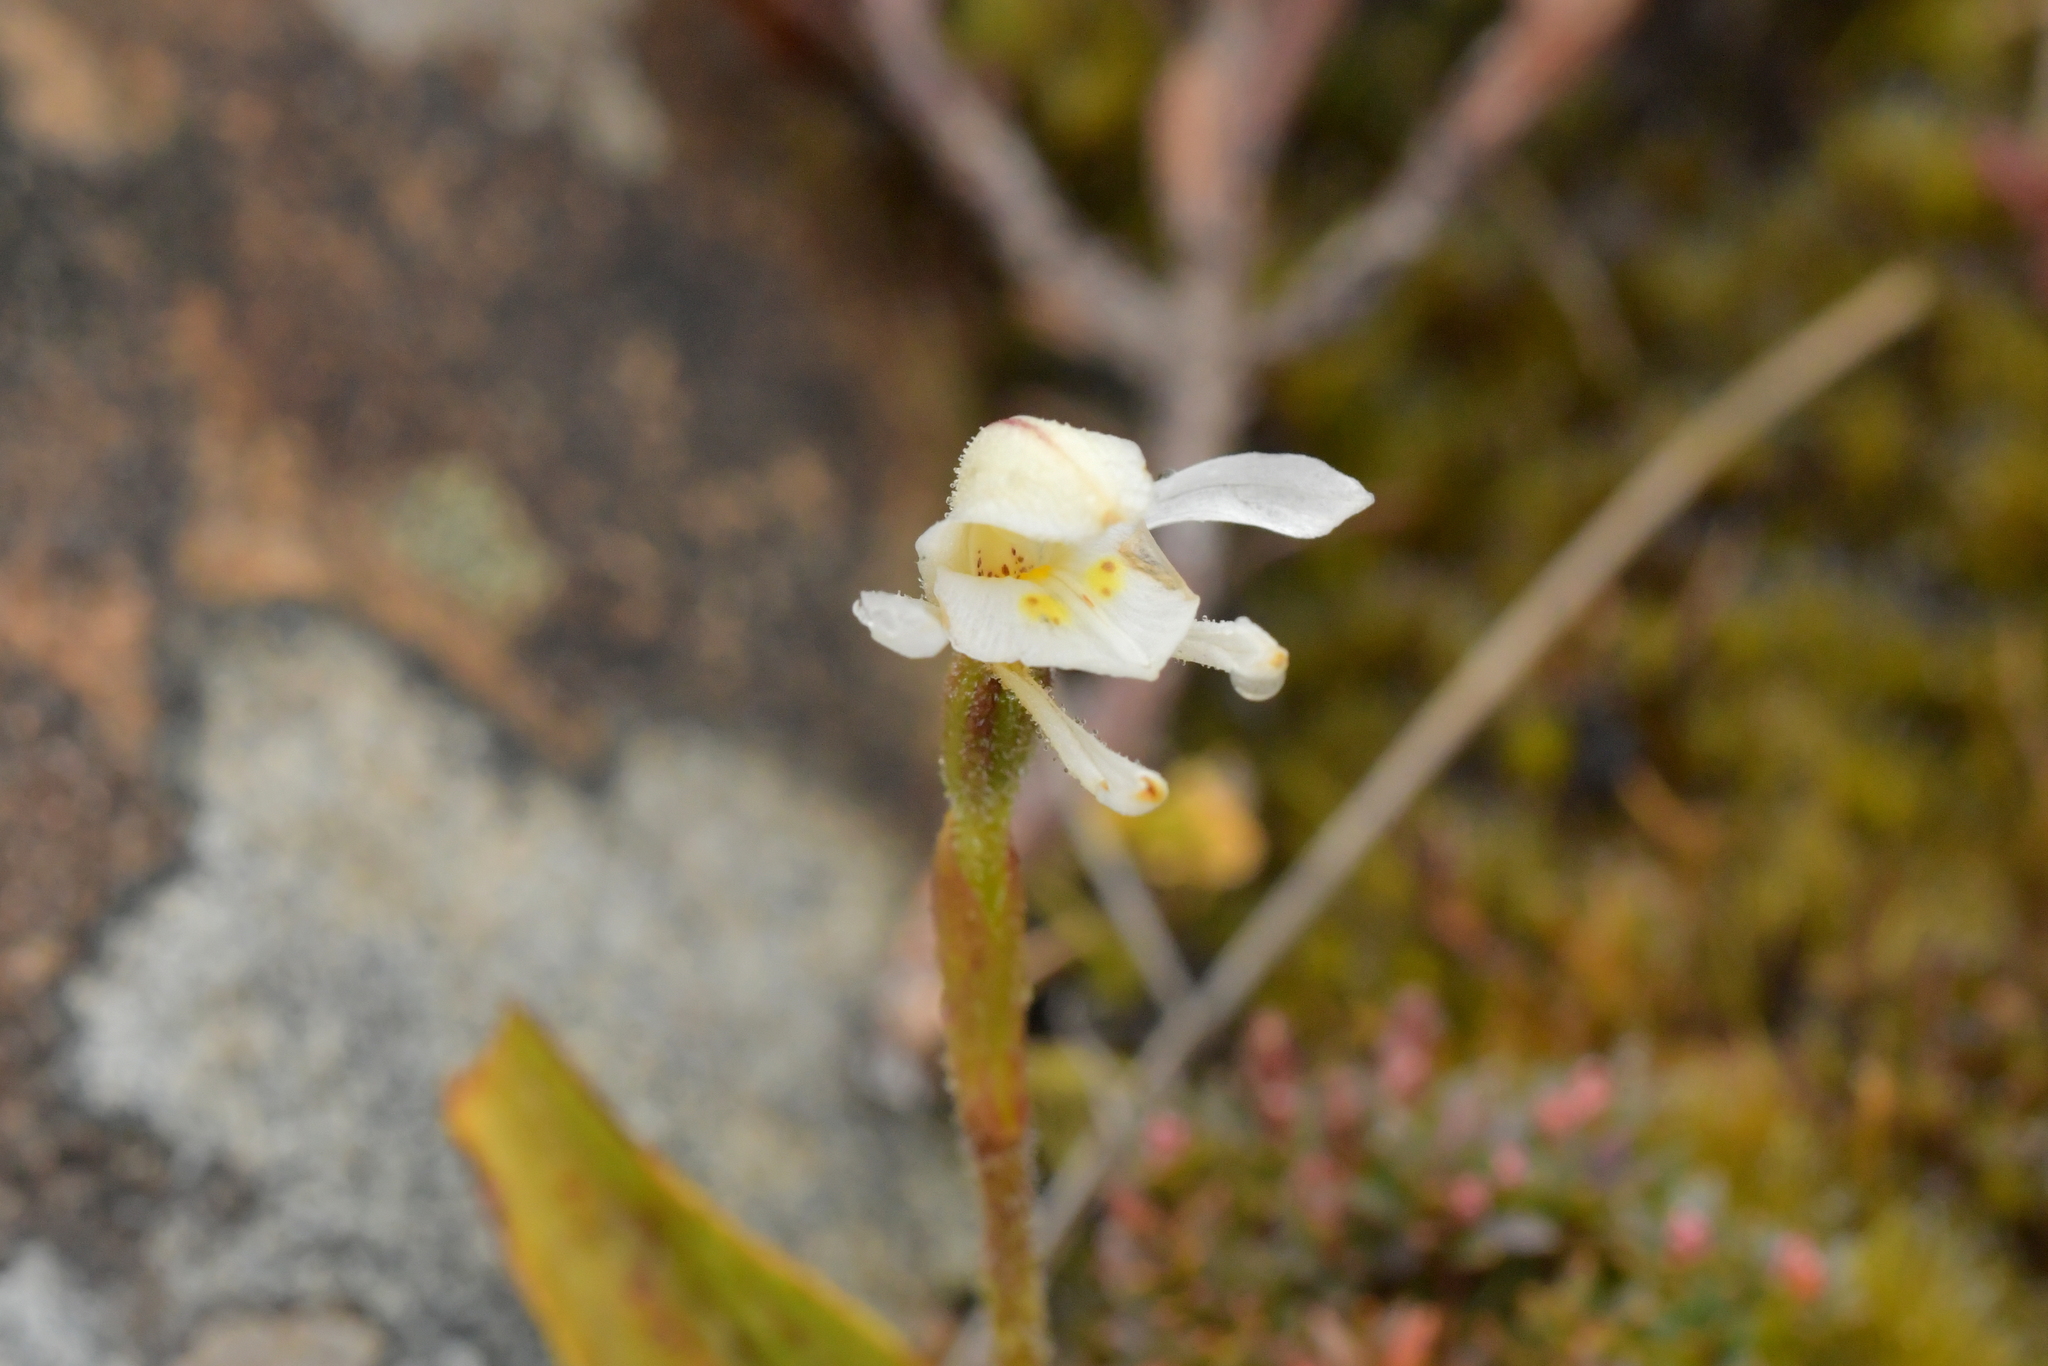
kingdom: Plantae
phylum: Tracheophyta
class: Liliopsida
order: Asparagales
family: Orchidaceae
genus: Aporostylis
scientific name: Aporostylis bifolia
